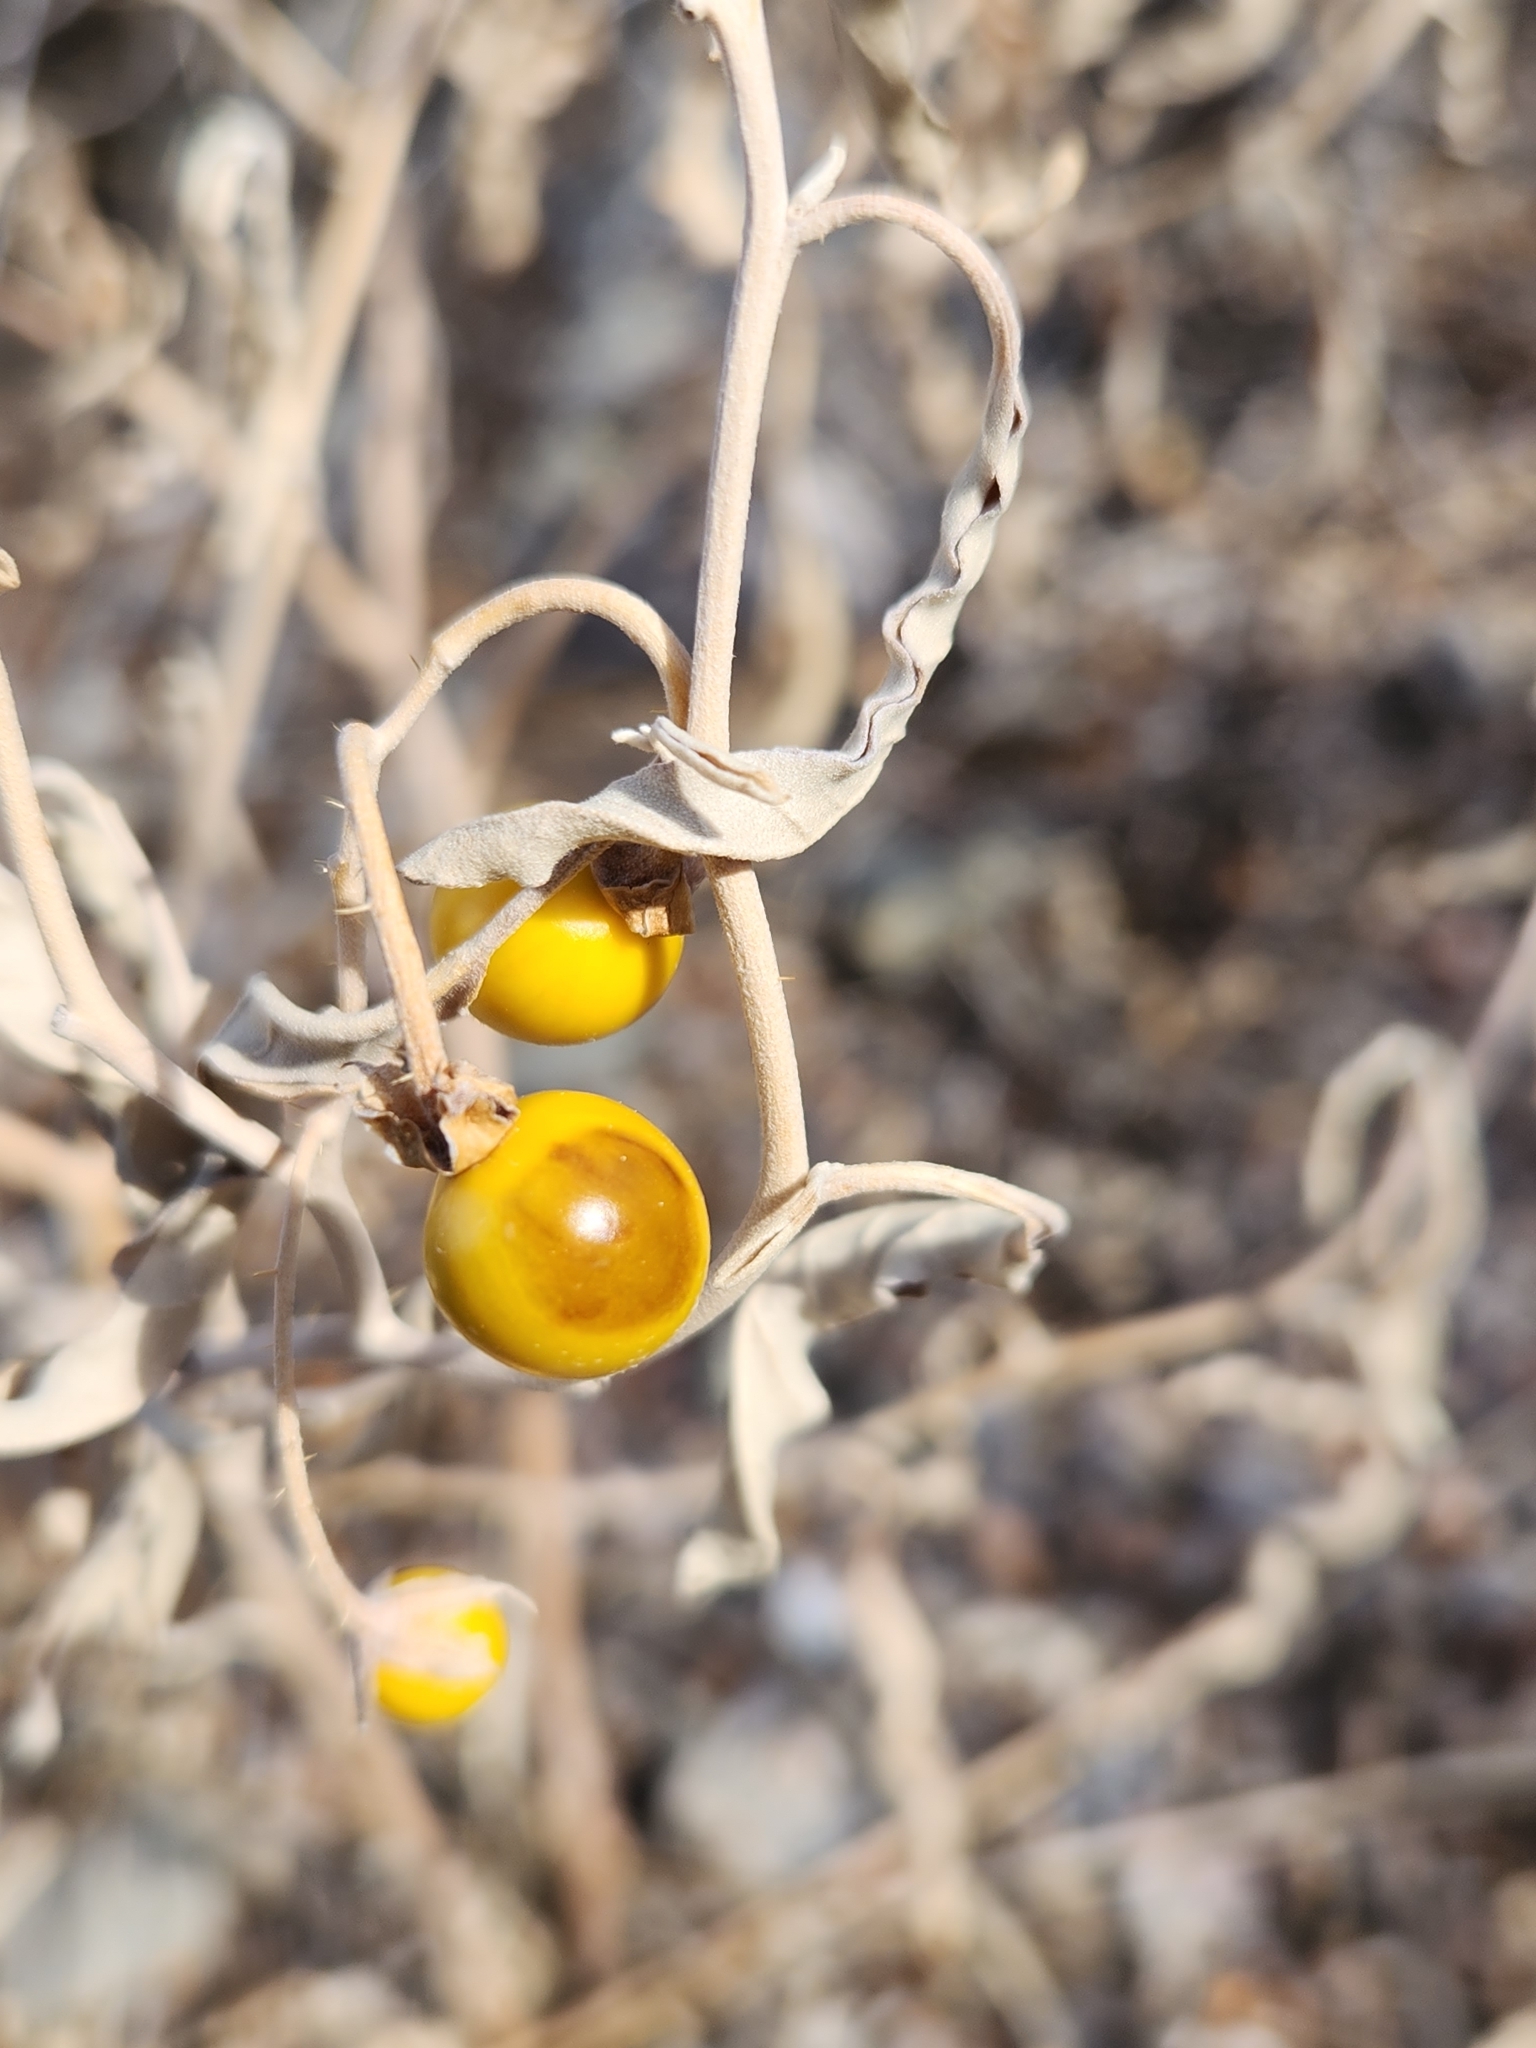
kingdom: Plantae
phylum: Tracheophyta
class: Magnoliopsida
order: Solanales
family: Solanaceae
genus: Solanum
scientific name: Solanum elaeagnifolium
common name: Silverleaf nightshade
